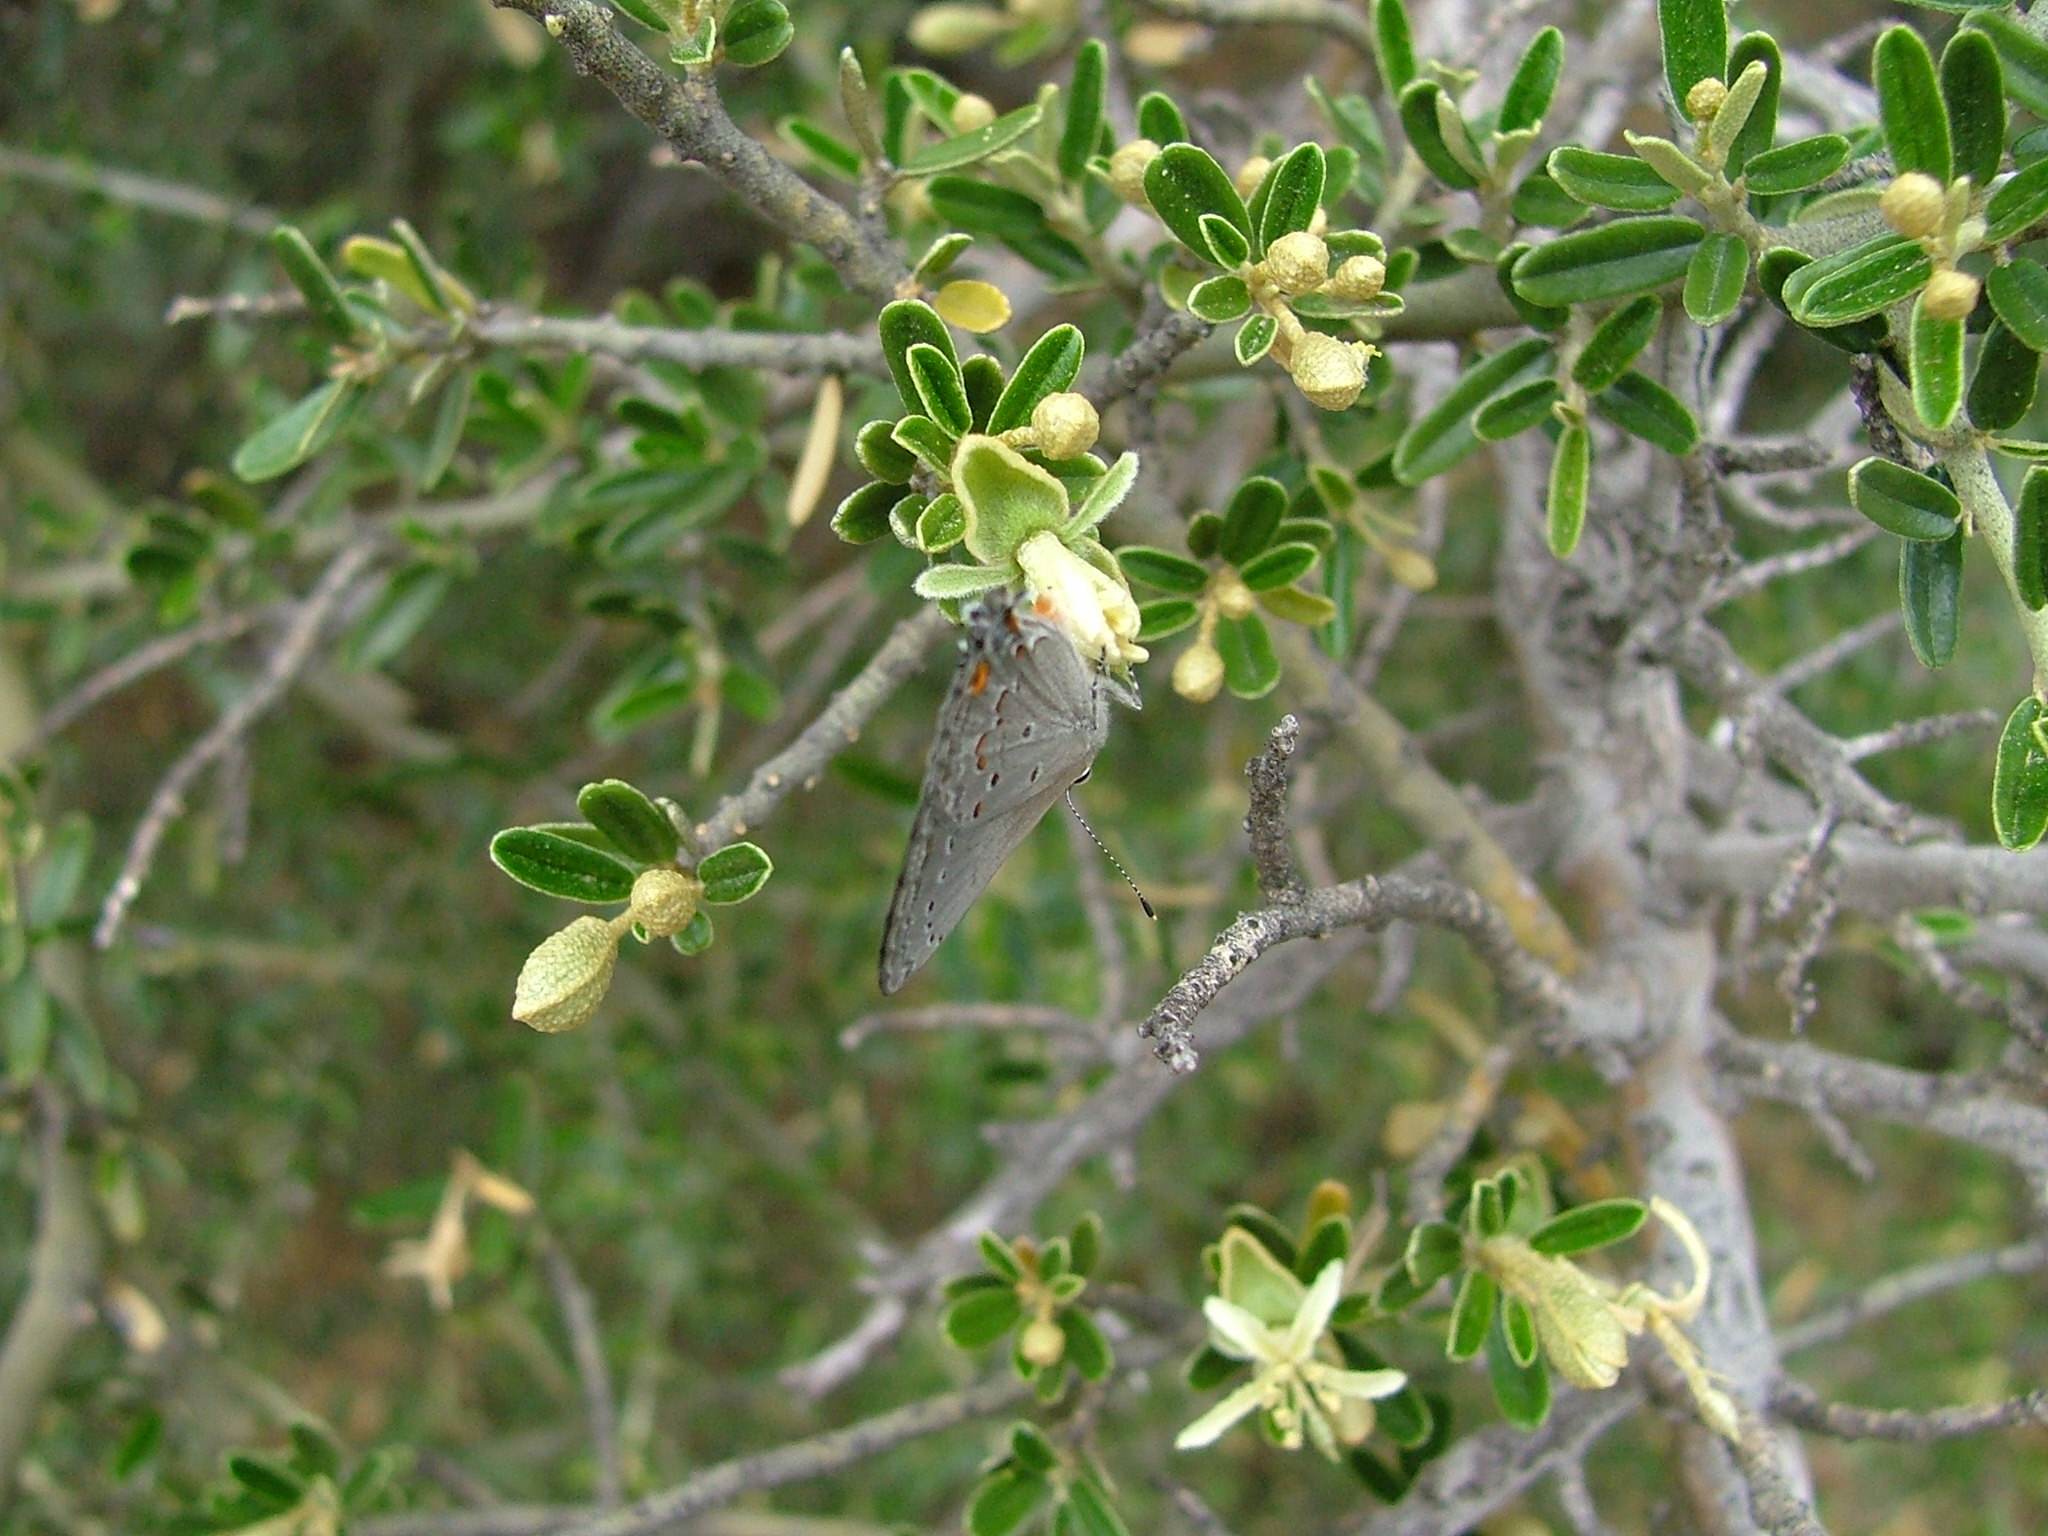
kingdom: Animalia
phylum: Arthropoda
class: Insecta
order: Lepidoptera
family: Lycaenidae
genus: Strymon
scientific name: Strymon eurytulus
